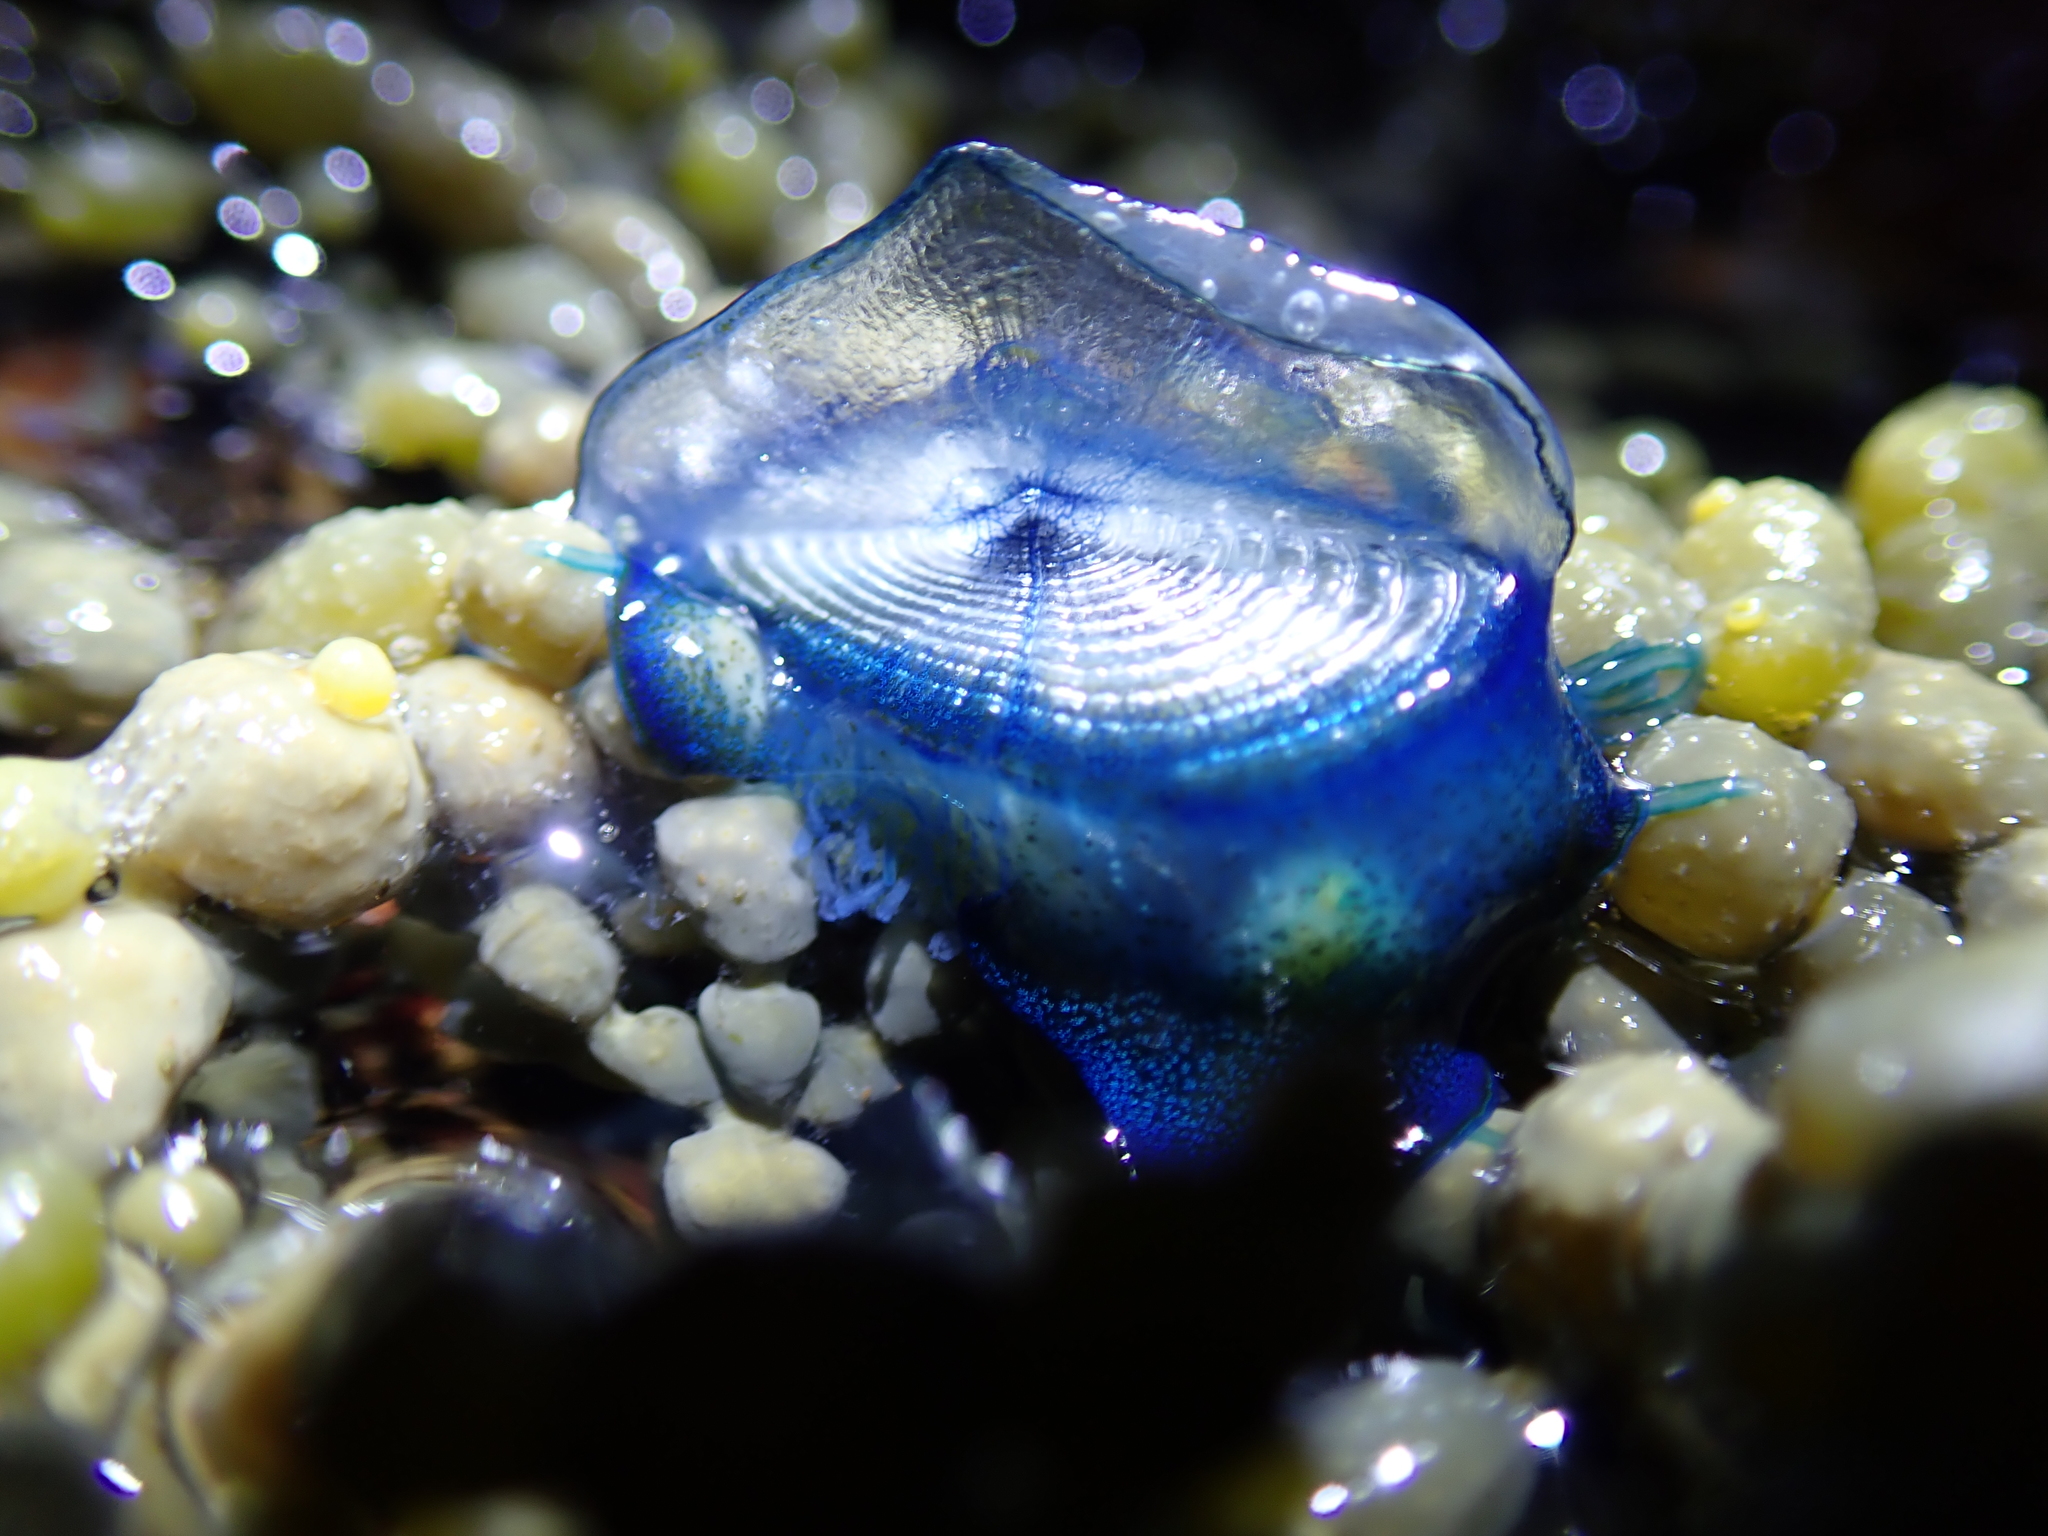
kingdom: Animalia
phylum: Cnidaria
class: Hydrozoa
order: Anthoathecata
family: Porpitidae
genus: Velella
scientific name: Velella velella
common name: By-the-wind-sailor
